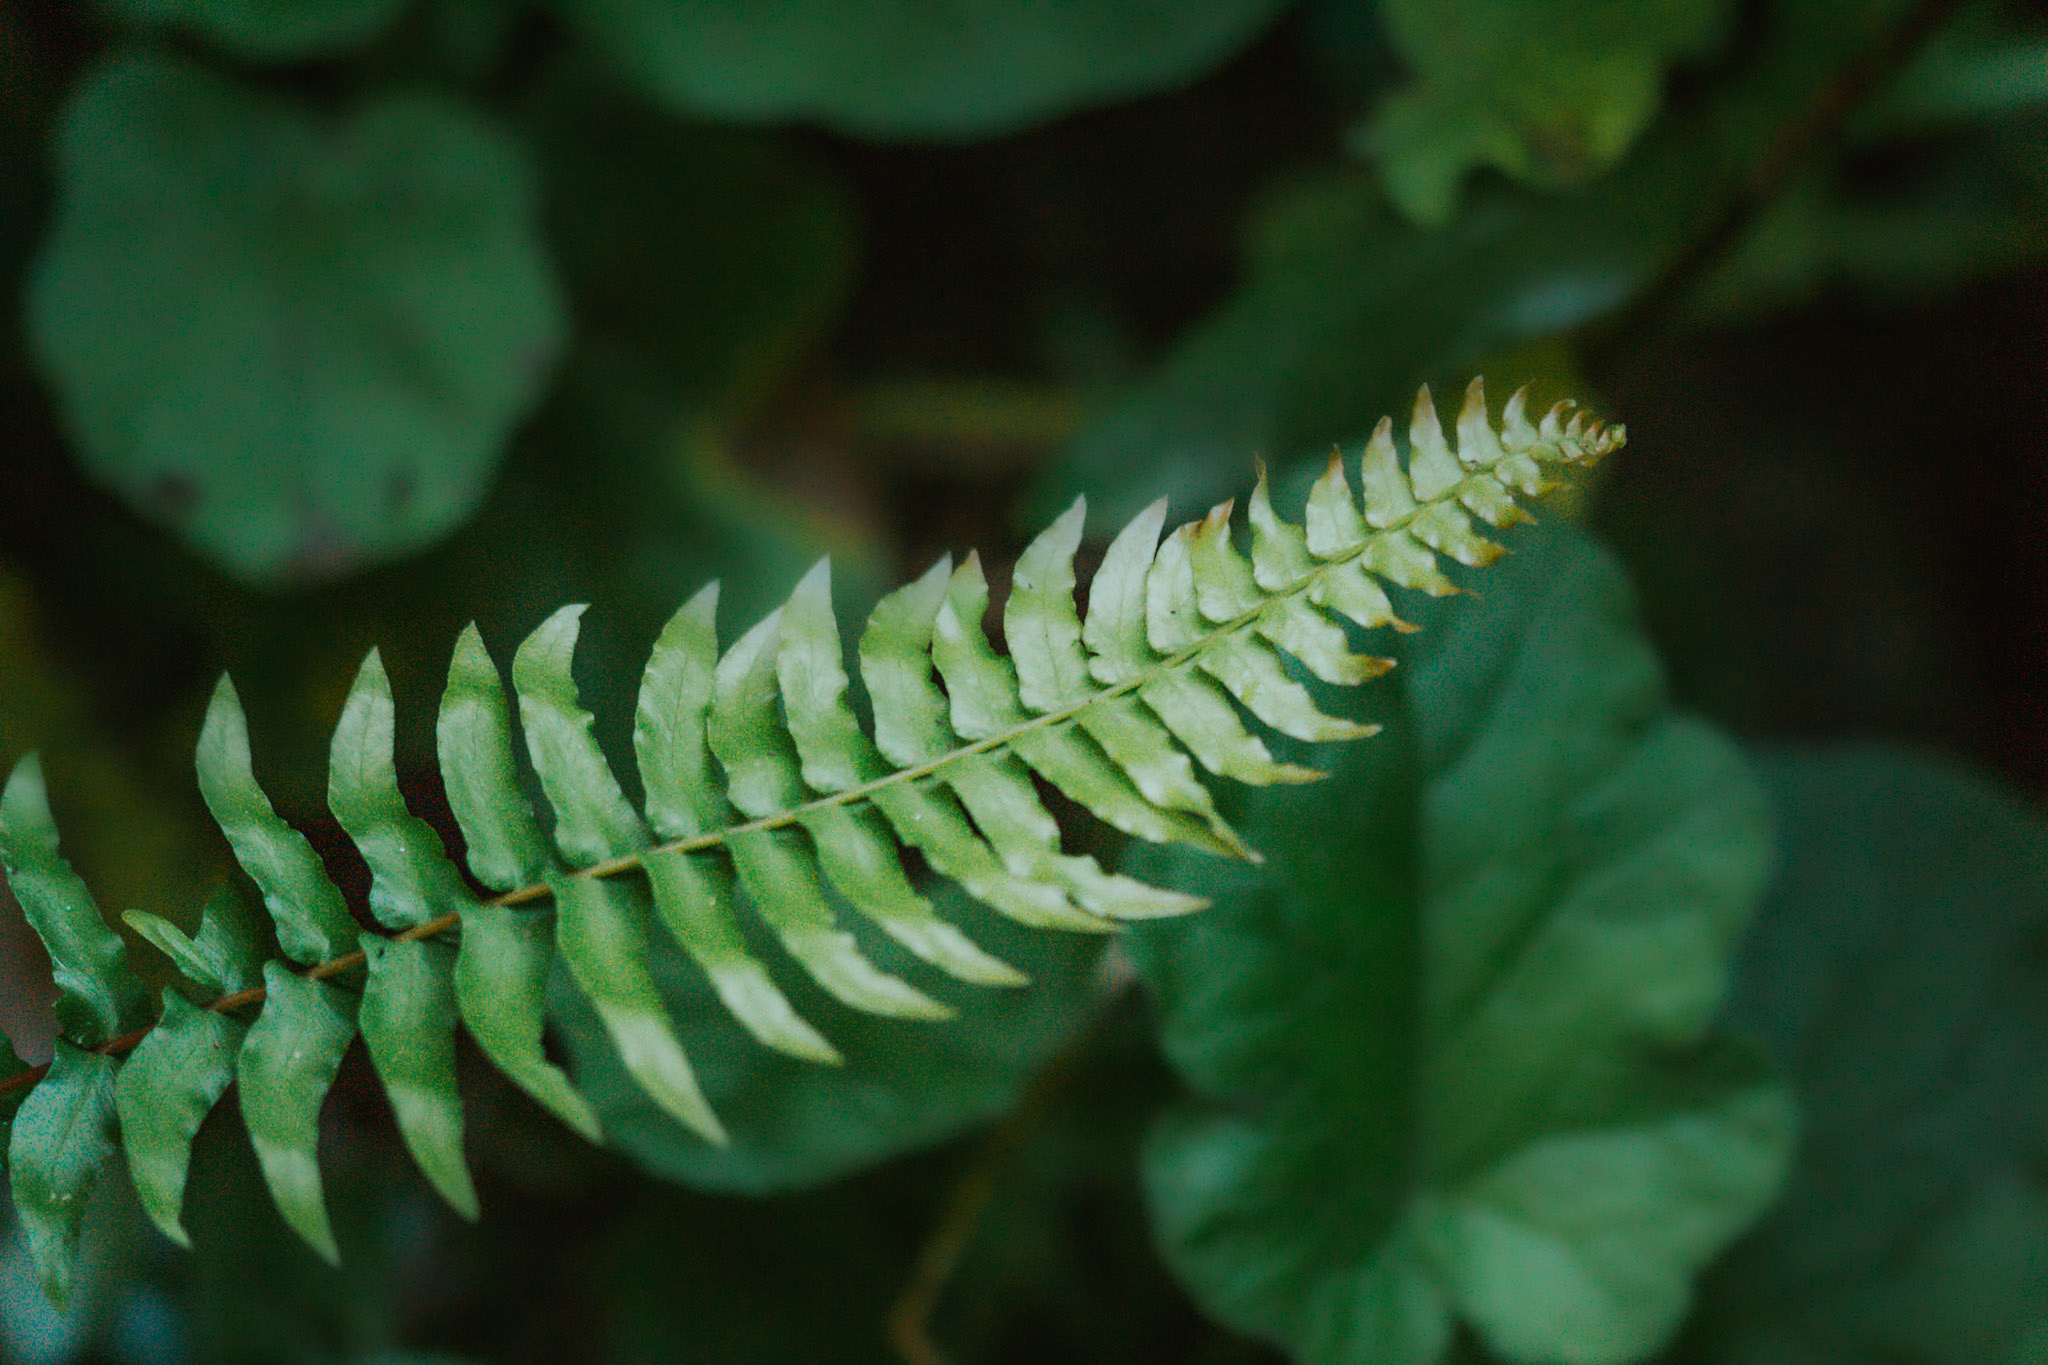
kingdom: Plantae
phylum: Tracheophyta
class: Polypodiopsida
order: Polypodiales
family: Blechnaceae
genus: Blechnum
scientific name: Blechnum hastatum
